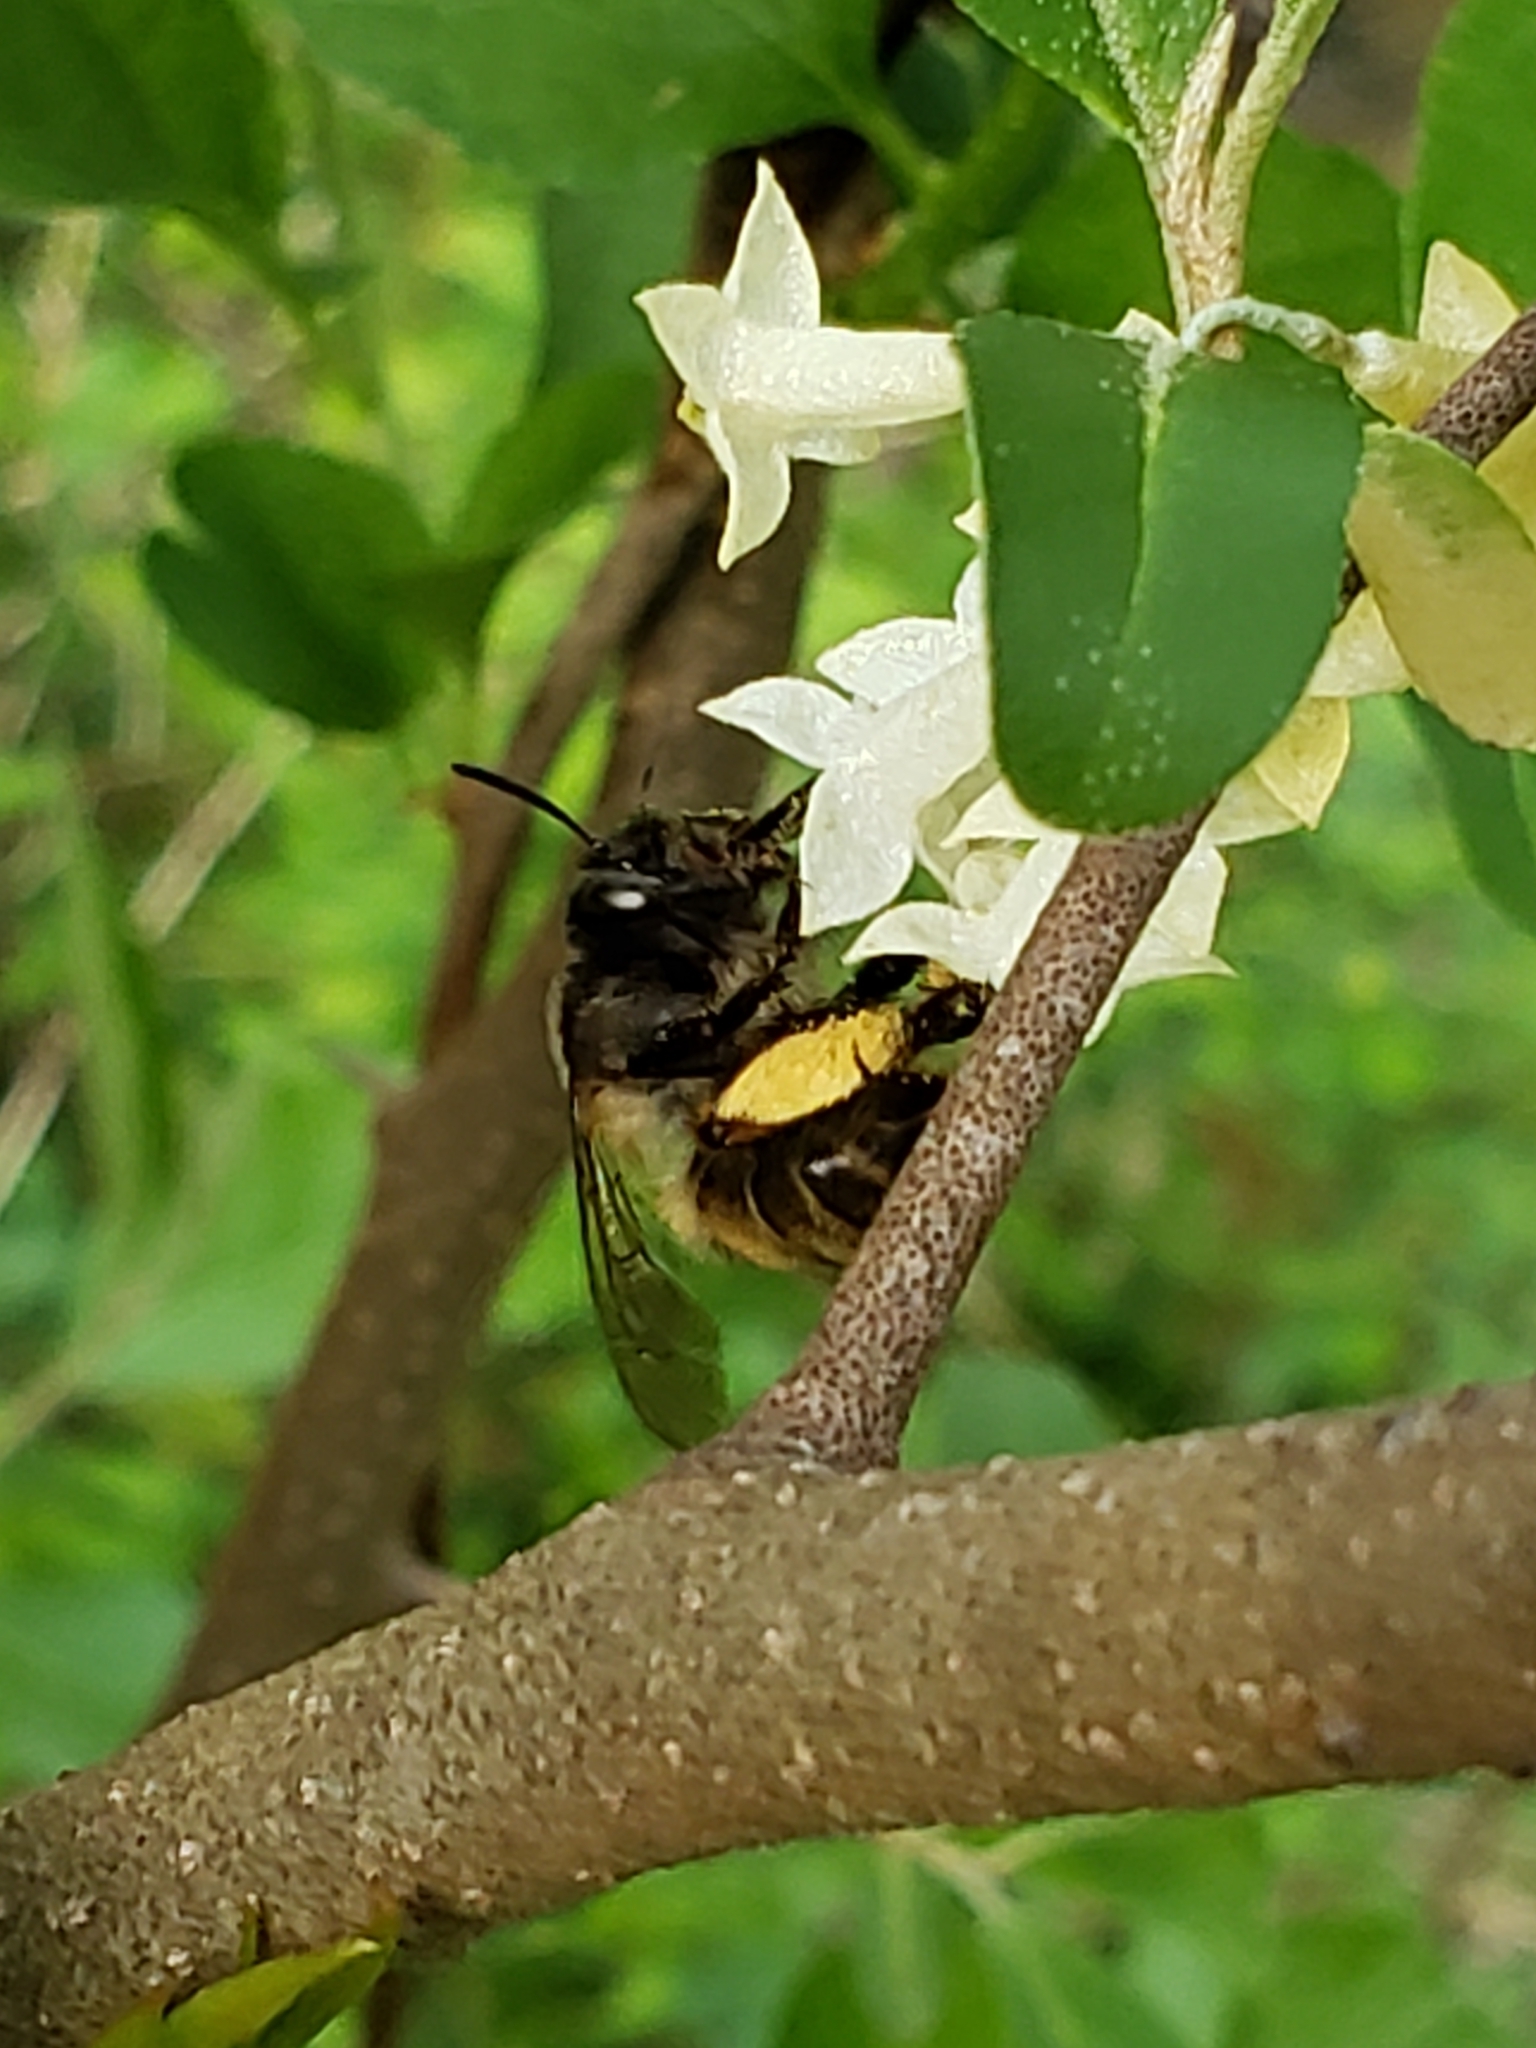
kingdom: Animalia
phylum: Arthropoda
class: Insecta
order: Hymenoptera
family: Apidae
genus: Anthophora
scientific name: Anthophora villosula
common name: Asian shaggy digger
